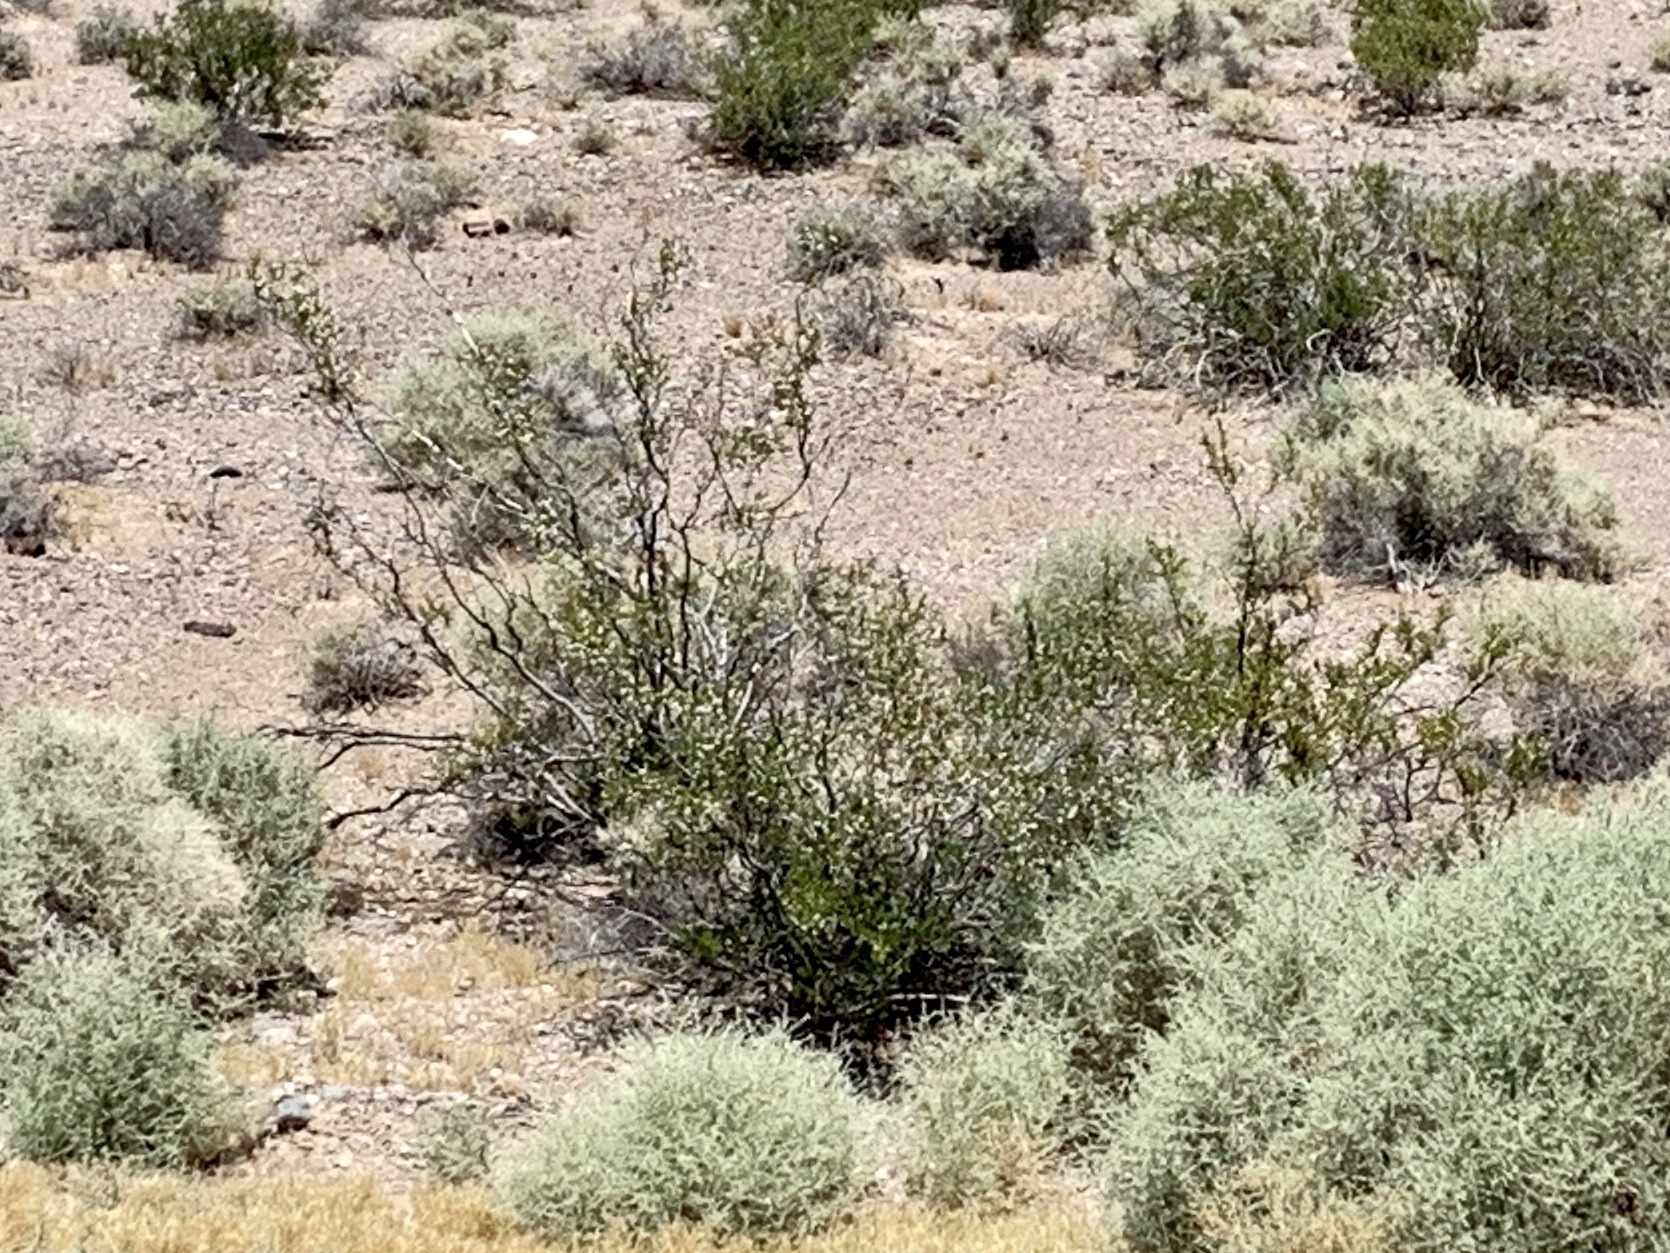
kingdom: Plantae
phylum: Tracheophyta
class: Magnoliopsida
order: Zygophyllales
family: Zygophyllaceae
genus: Larrea
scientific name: Larrea tridentata
